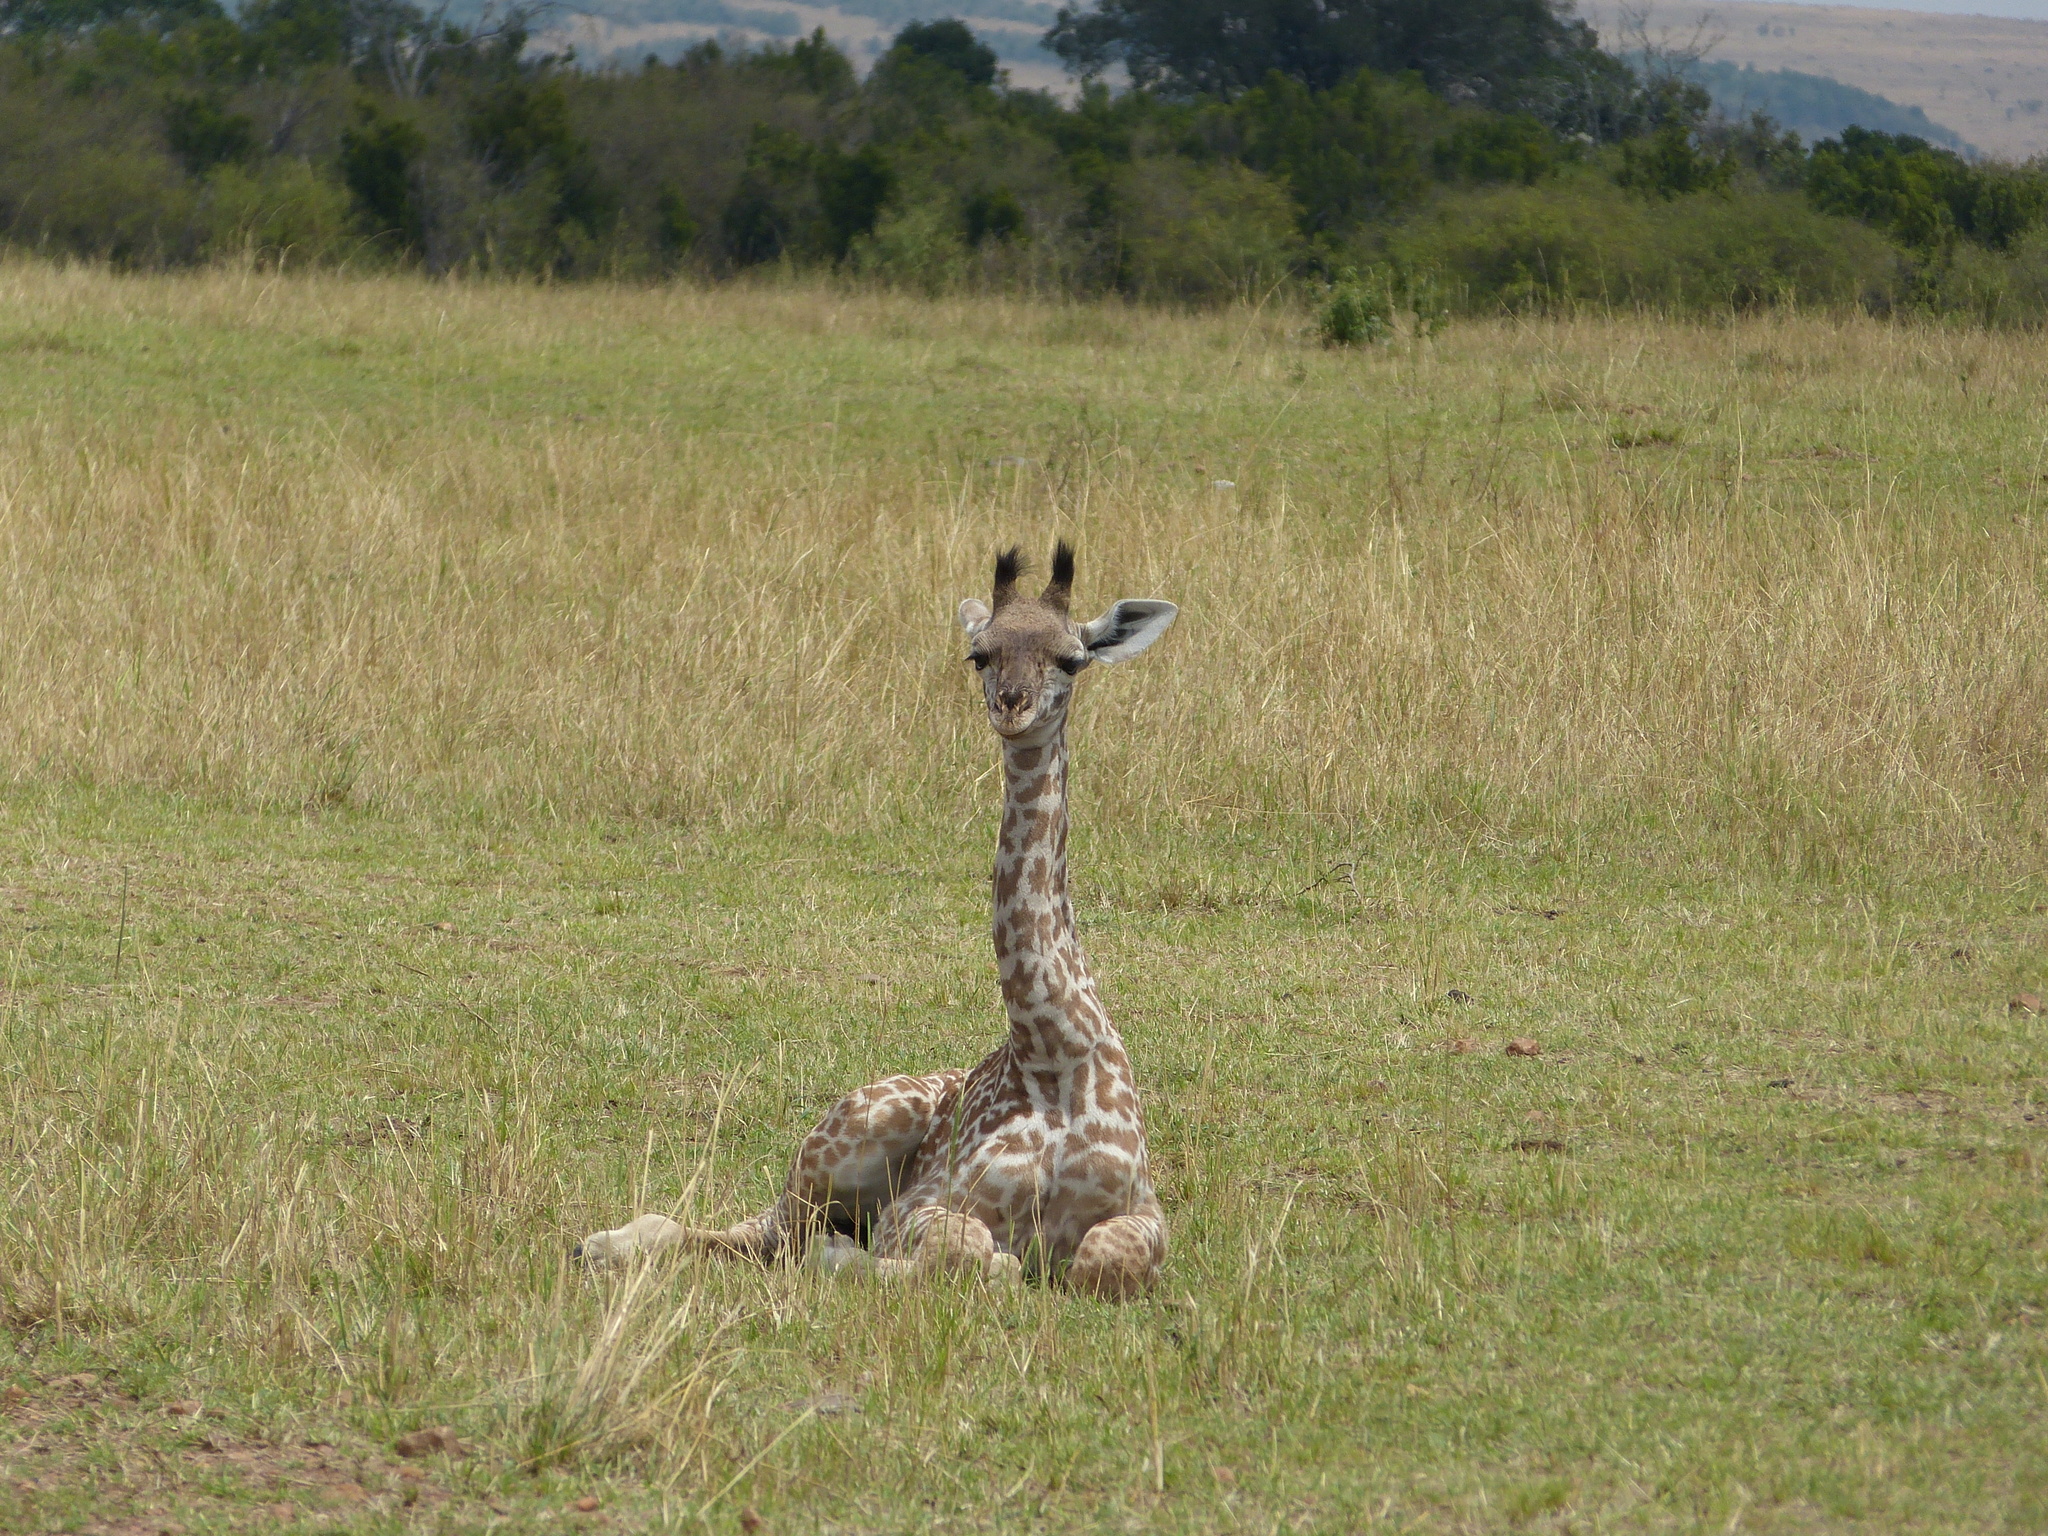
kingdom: Animalia
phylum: Chordata
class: Mammalia
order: Artiodactyla
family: Giraffidae
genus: Giraffa
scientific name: Giraffa tippelskirchi
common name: Masai giraffe
